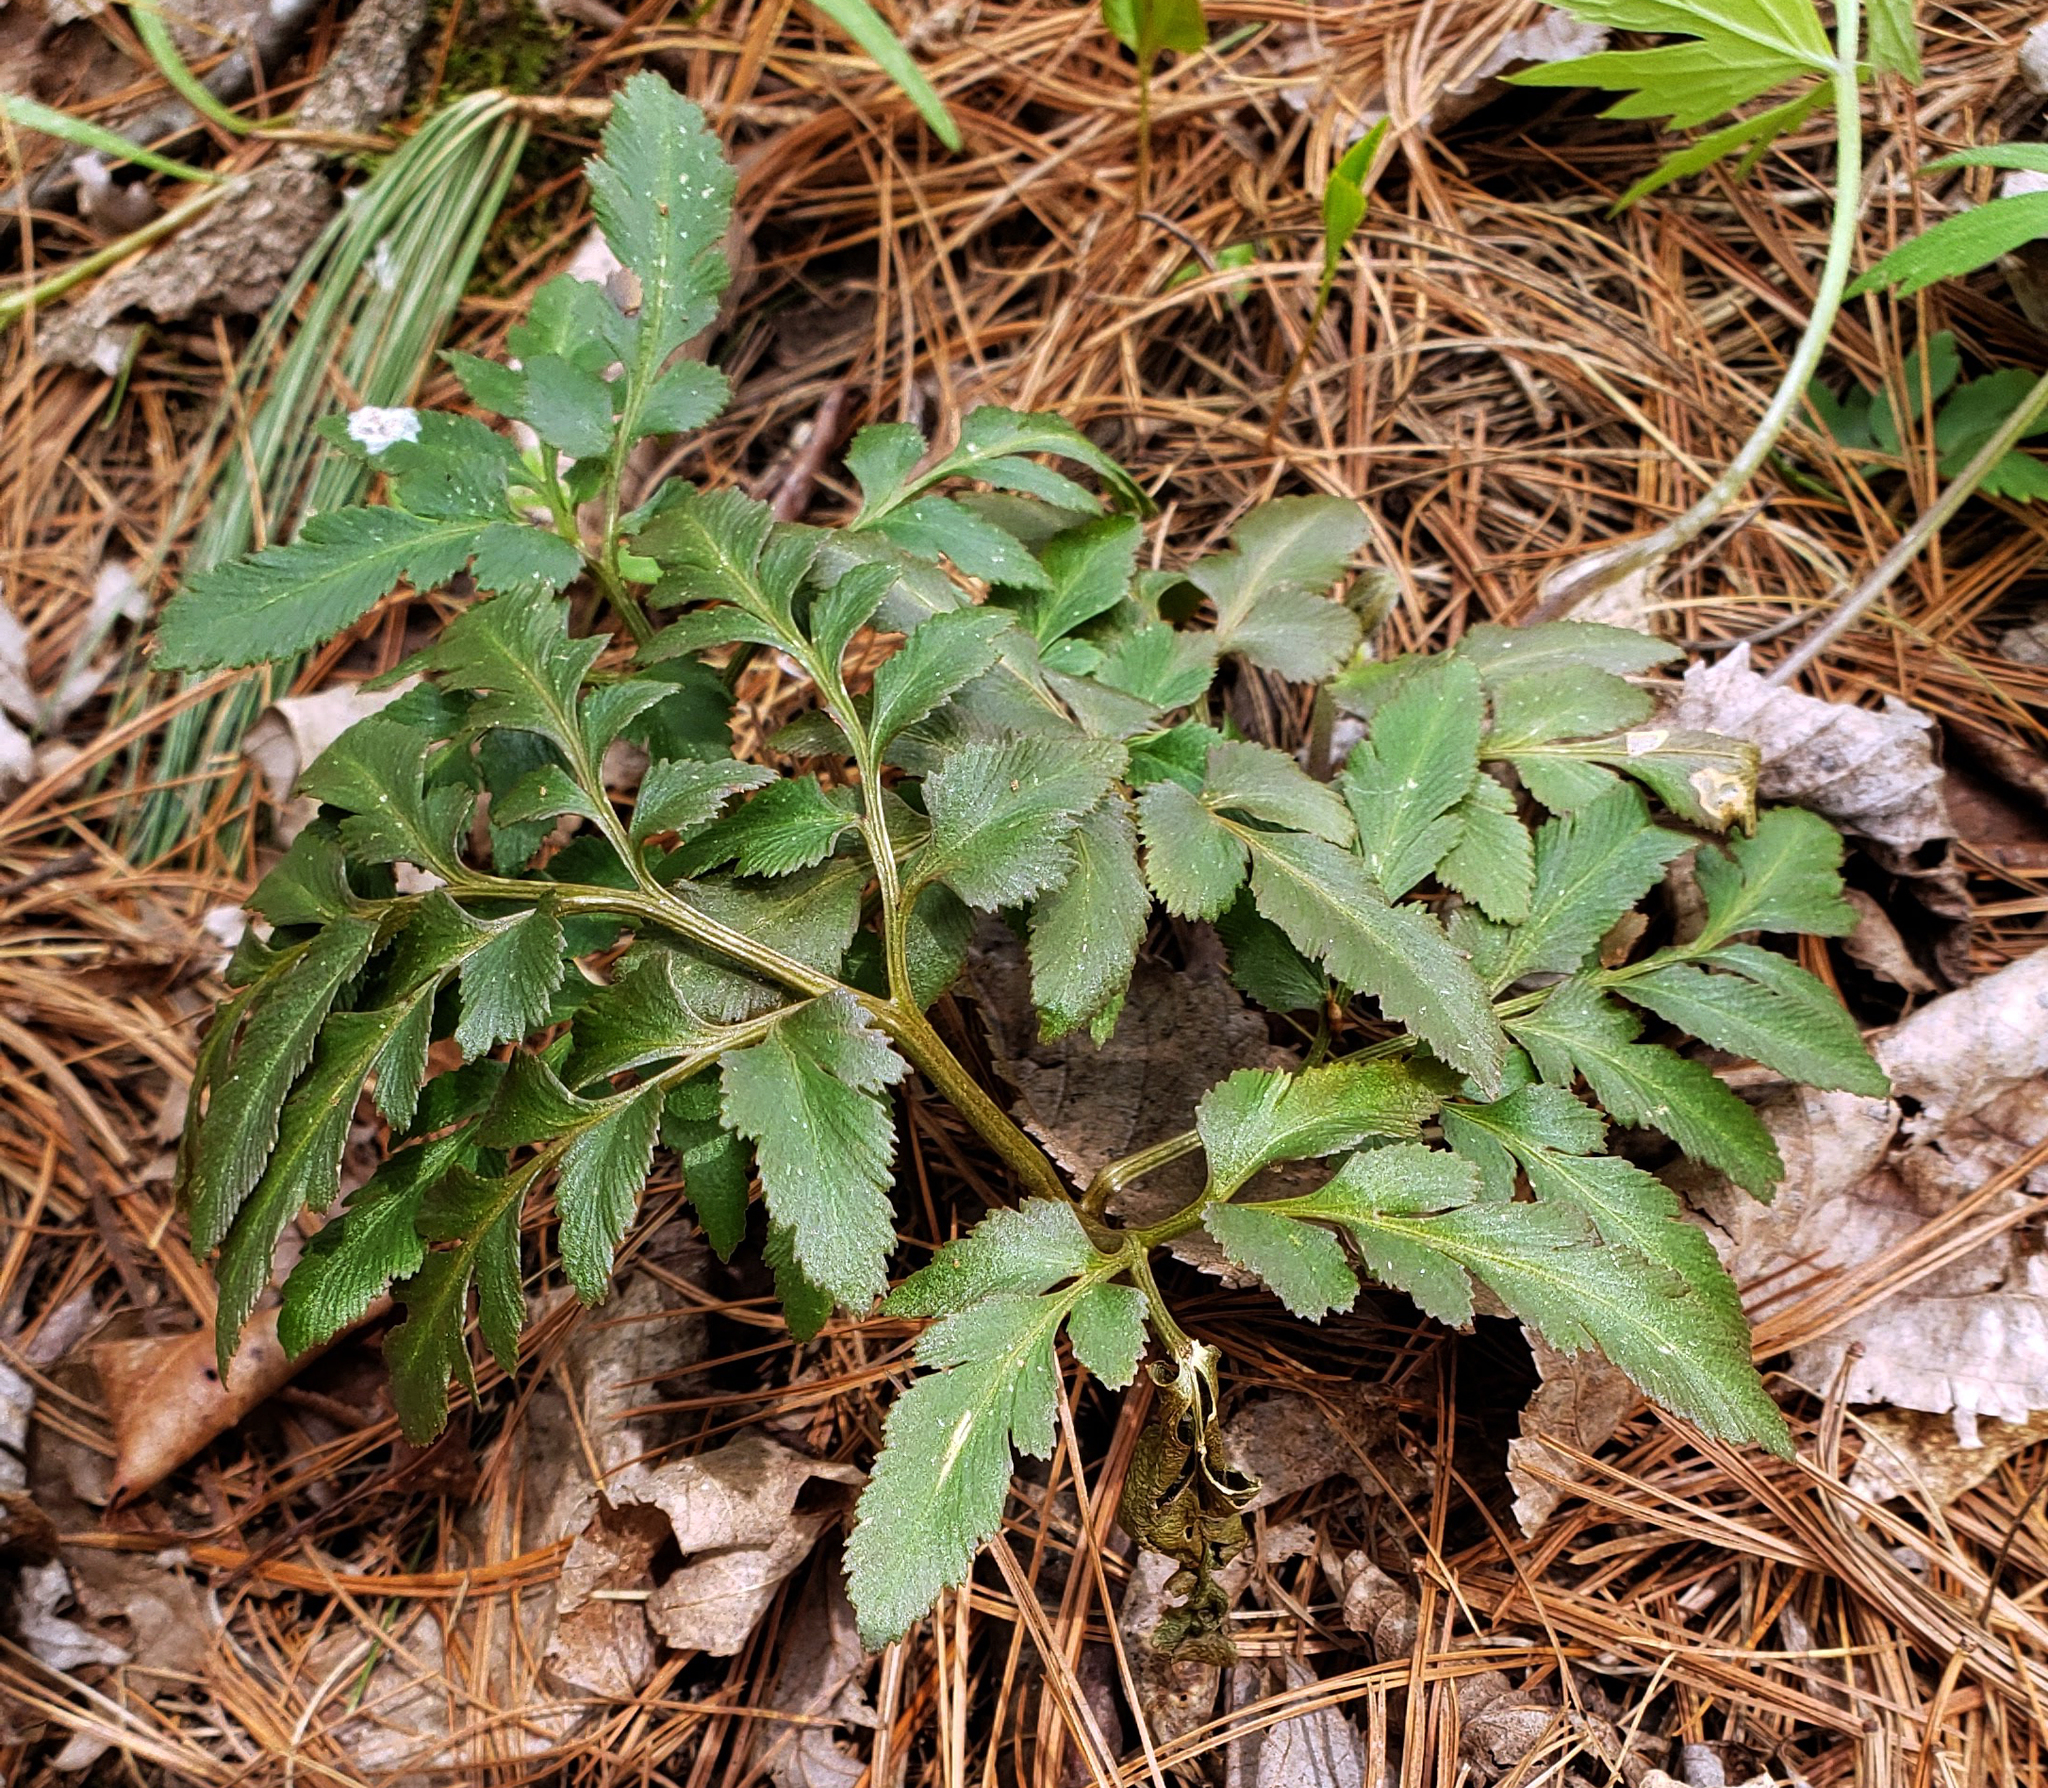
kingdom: Plantae
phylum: Tracheophyta
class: Polypodiopsida
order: Ophioglossales
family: Ophioglossaceae
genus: Sceptridium
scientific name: Sceptridium dissectum
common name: Cut-leaved grapefern
